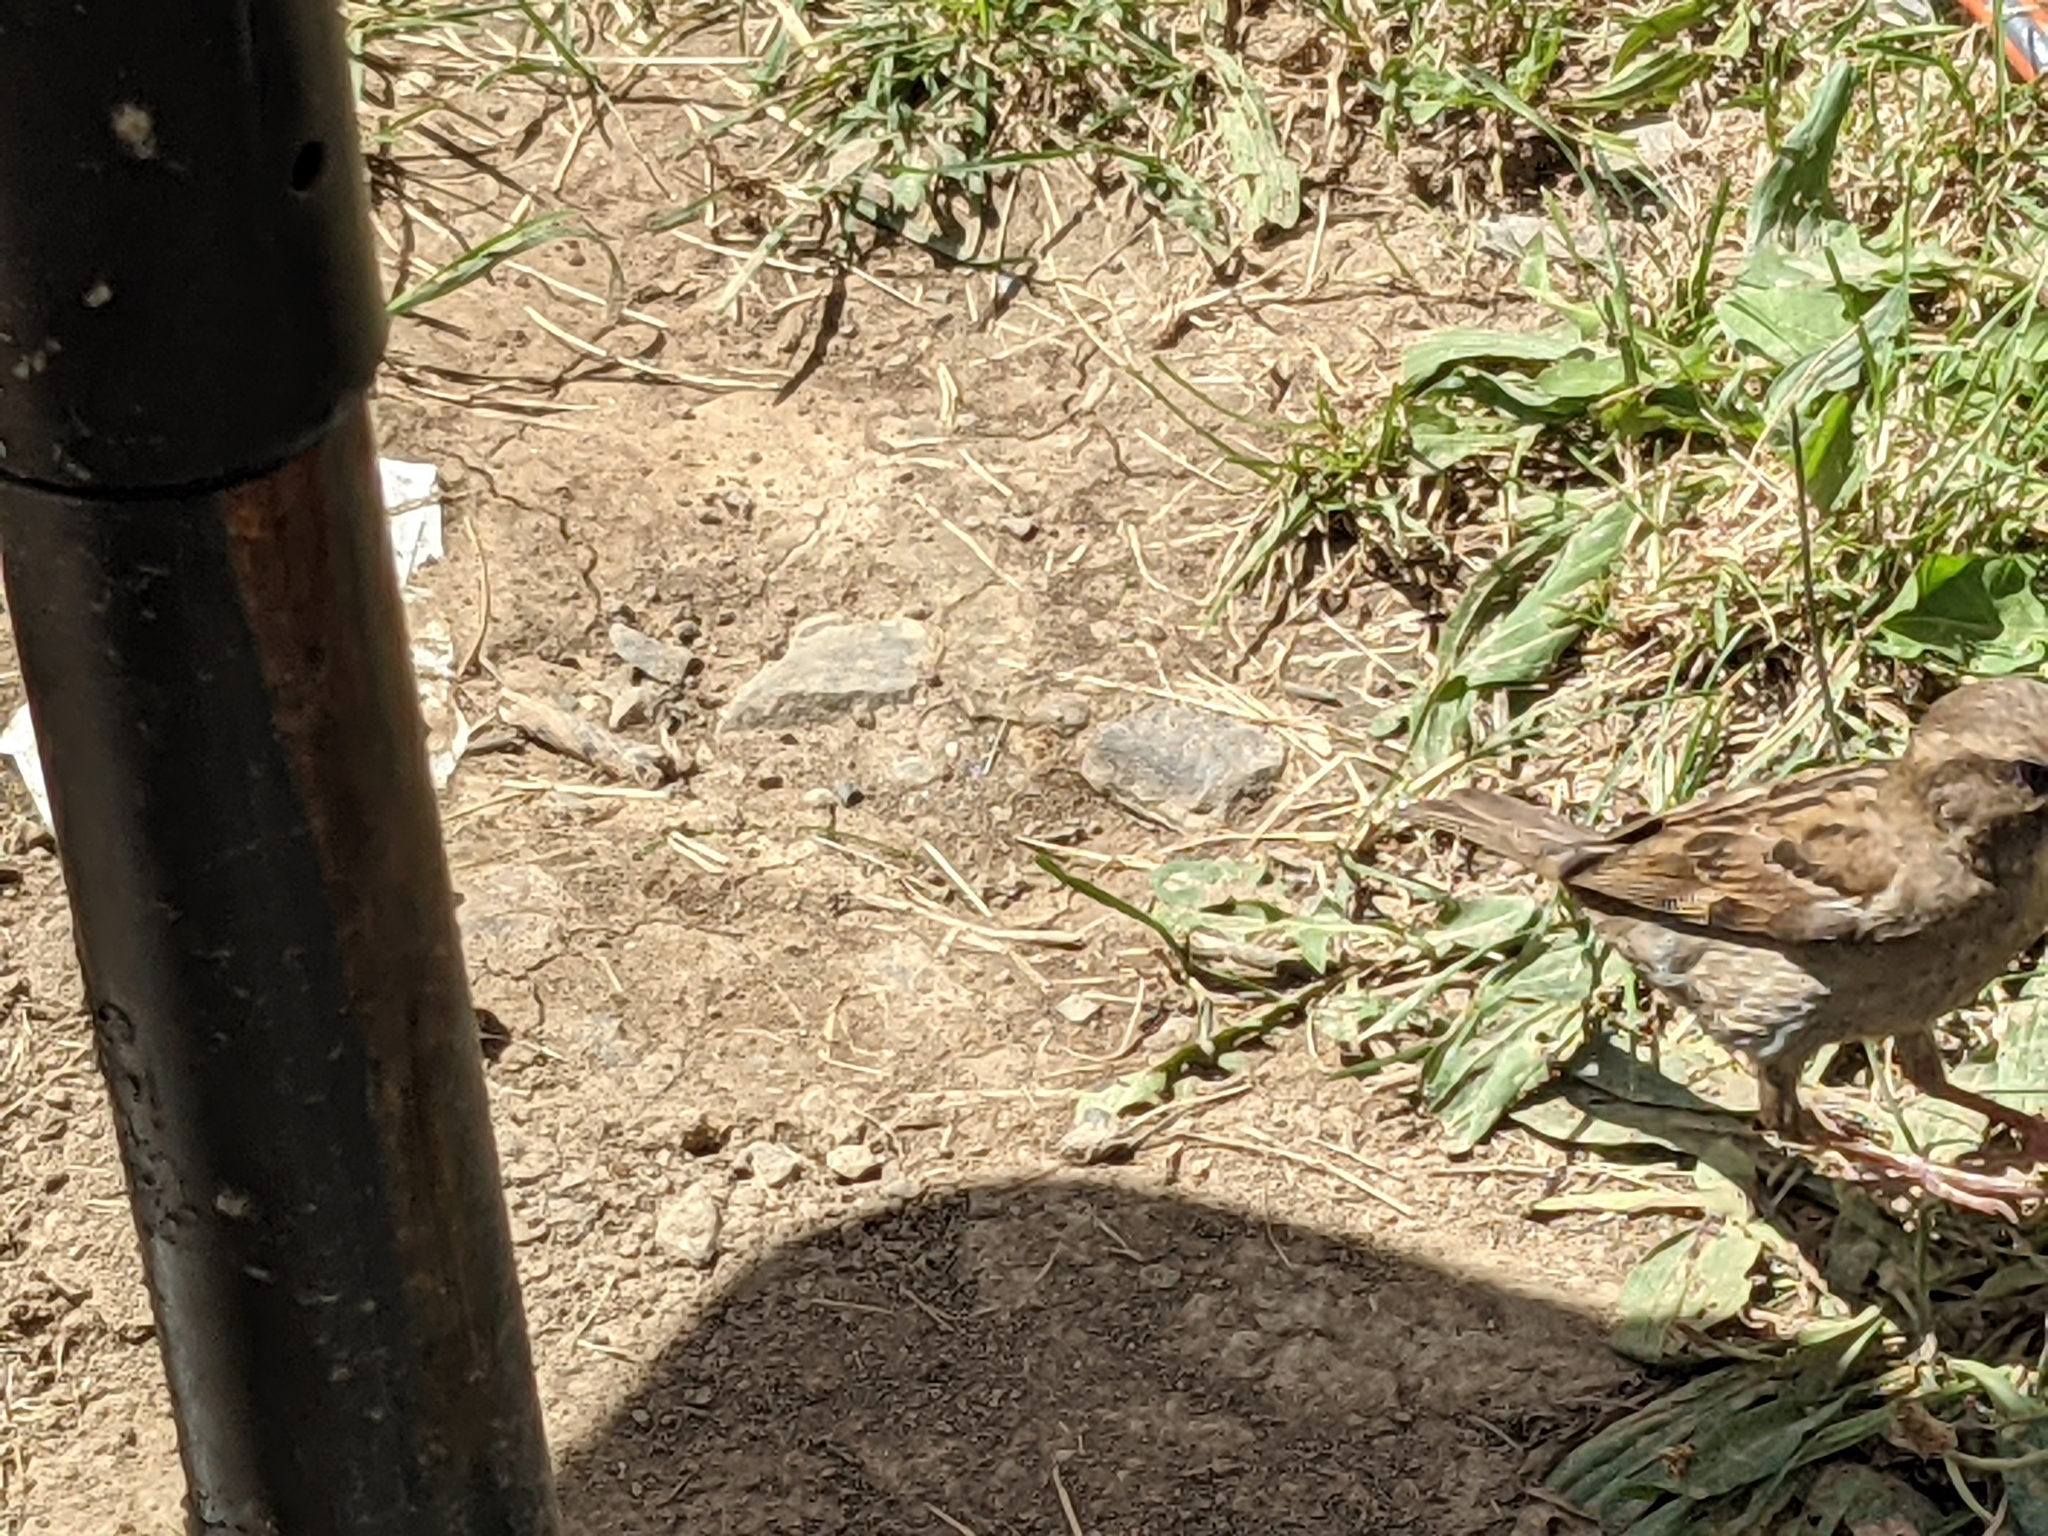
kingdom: Animalia
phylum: Chordata
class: Aves
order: Passeriformes
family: Passeridae
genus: Passer
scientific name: Passer domesticus
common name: House sparrow
